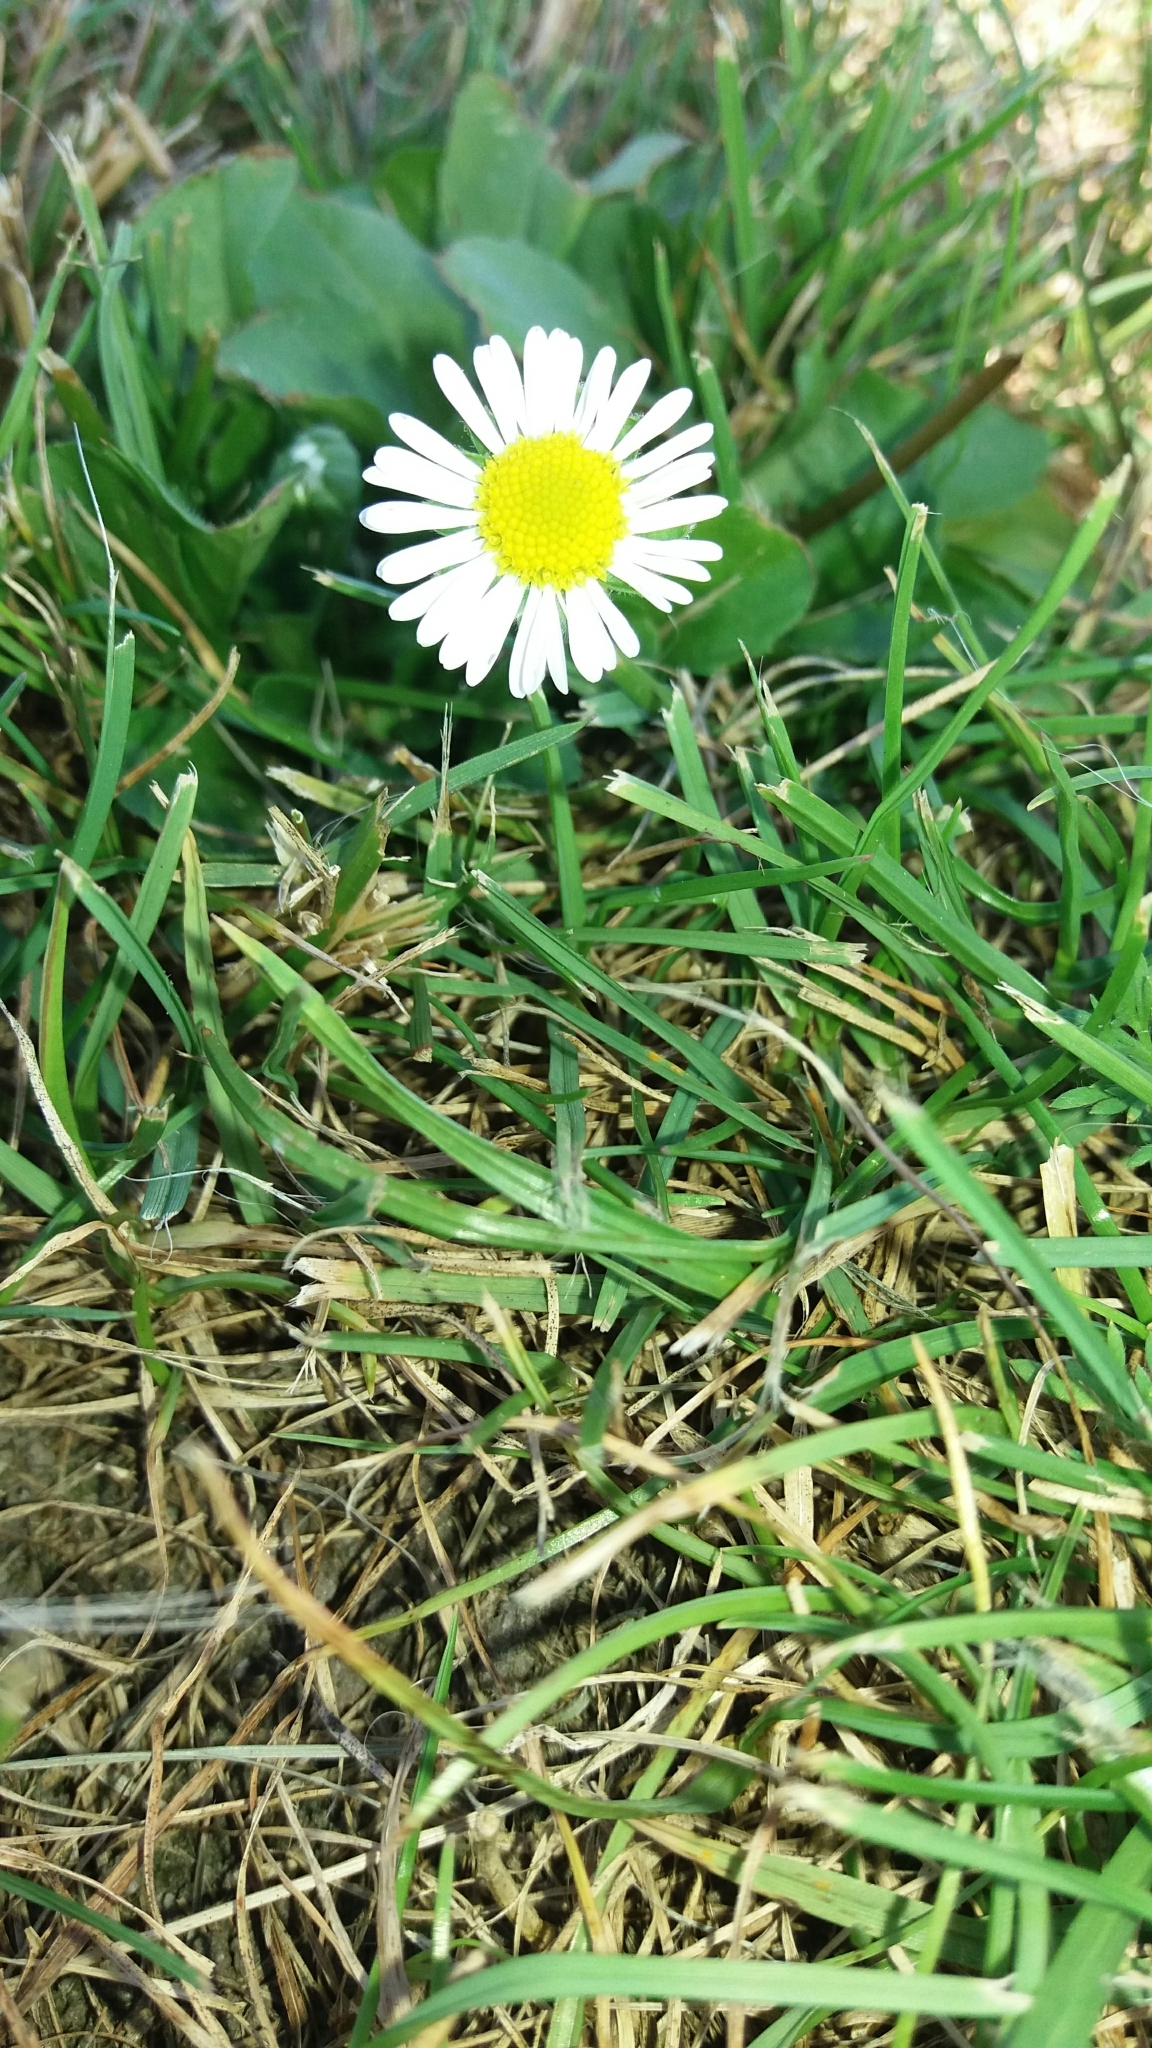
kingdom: Plantae
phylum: Tracheophyta
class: Magnoliopsida
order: Asterales
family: Asteraceae
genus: Bellis
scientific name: Bellis perennis
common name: Lawndaisy
